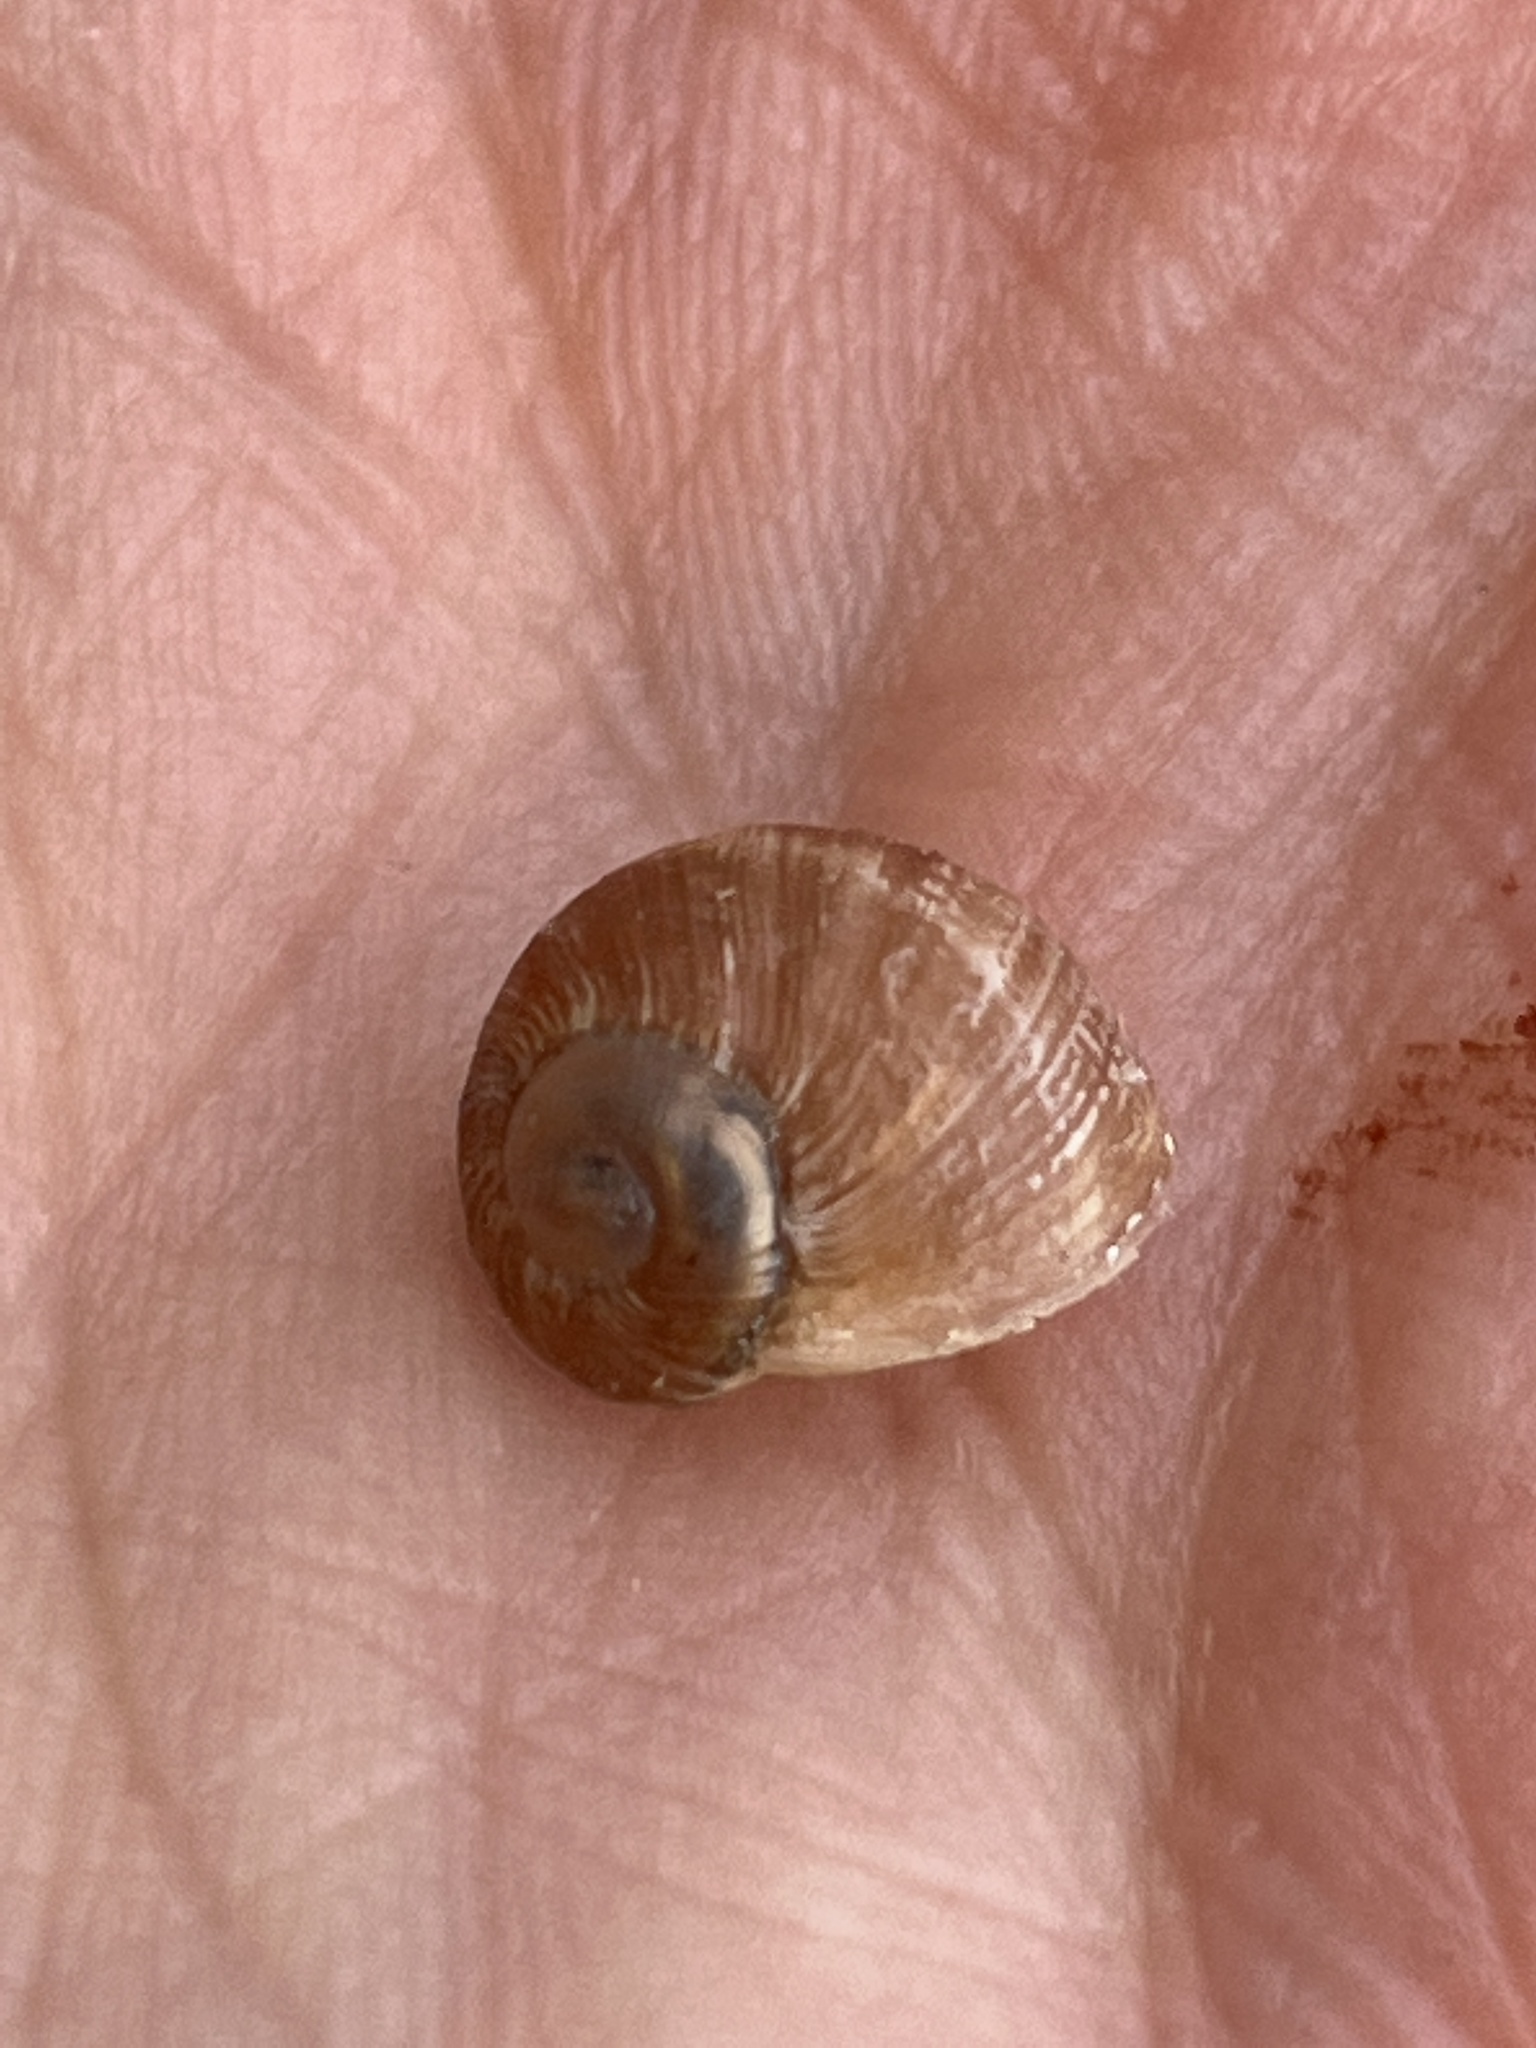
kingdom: Animalia
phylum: Mollusca
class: Gastropoda
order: Stylommatophora
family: Helicidae
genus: Cornu
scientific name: Cornu aspersum
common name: Brown garden snail
